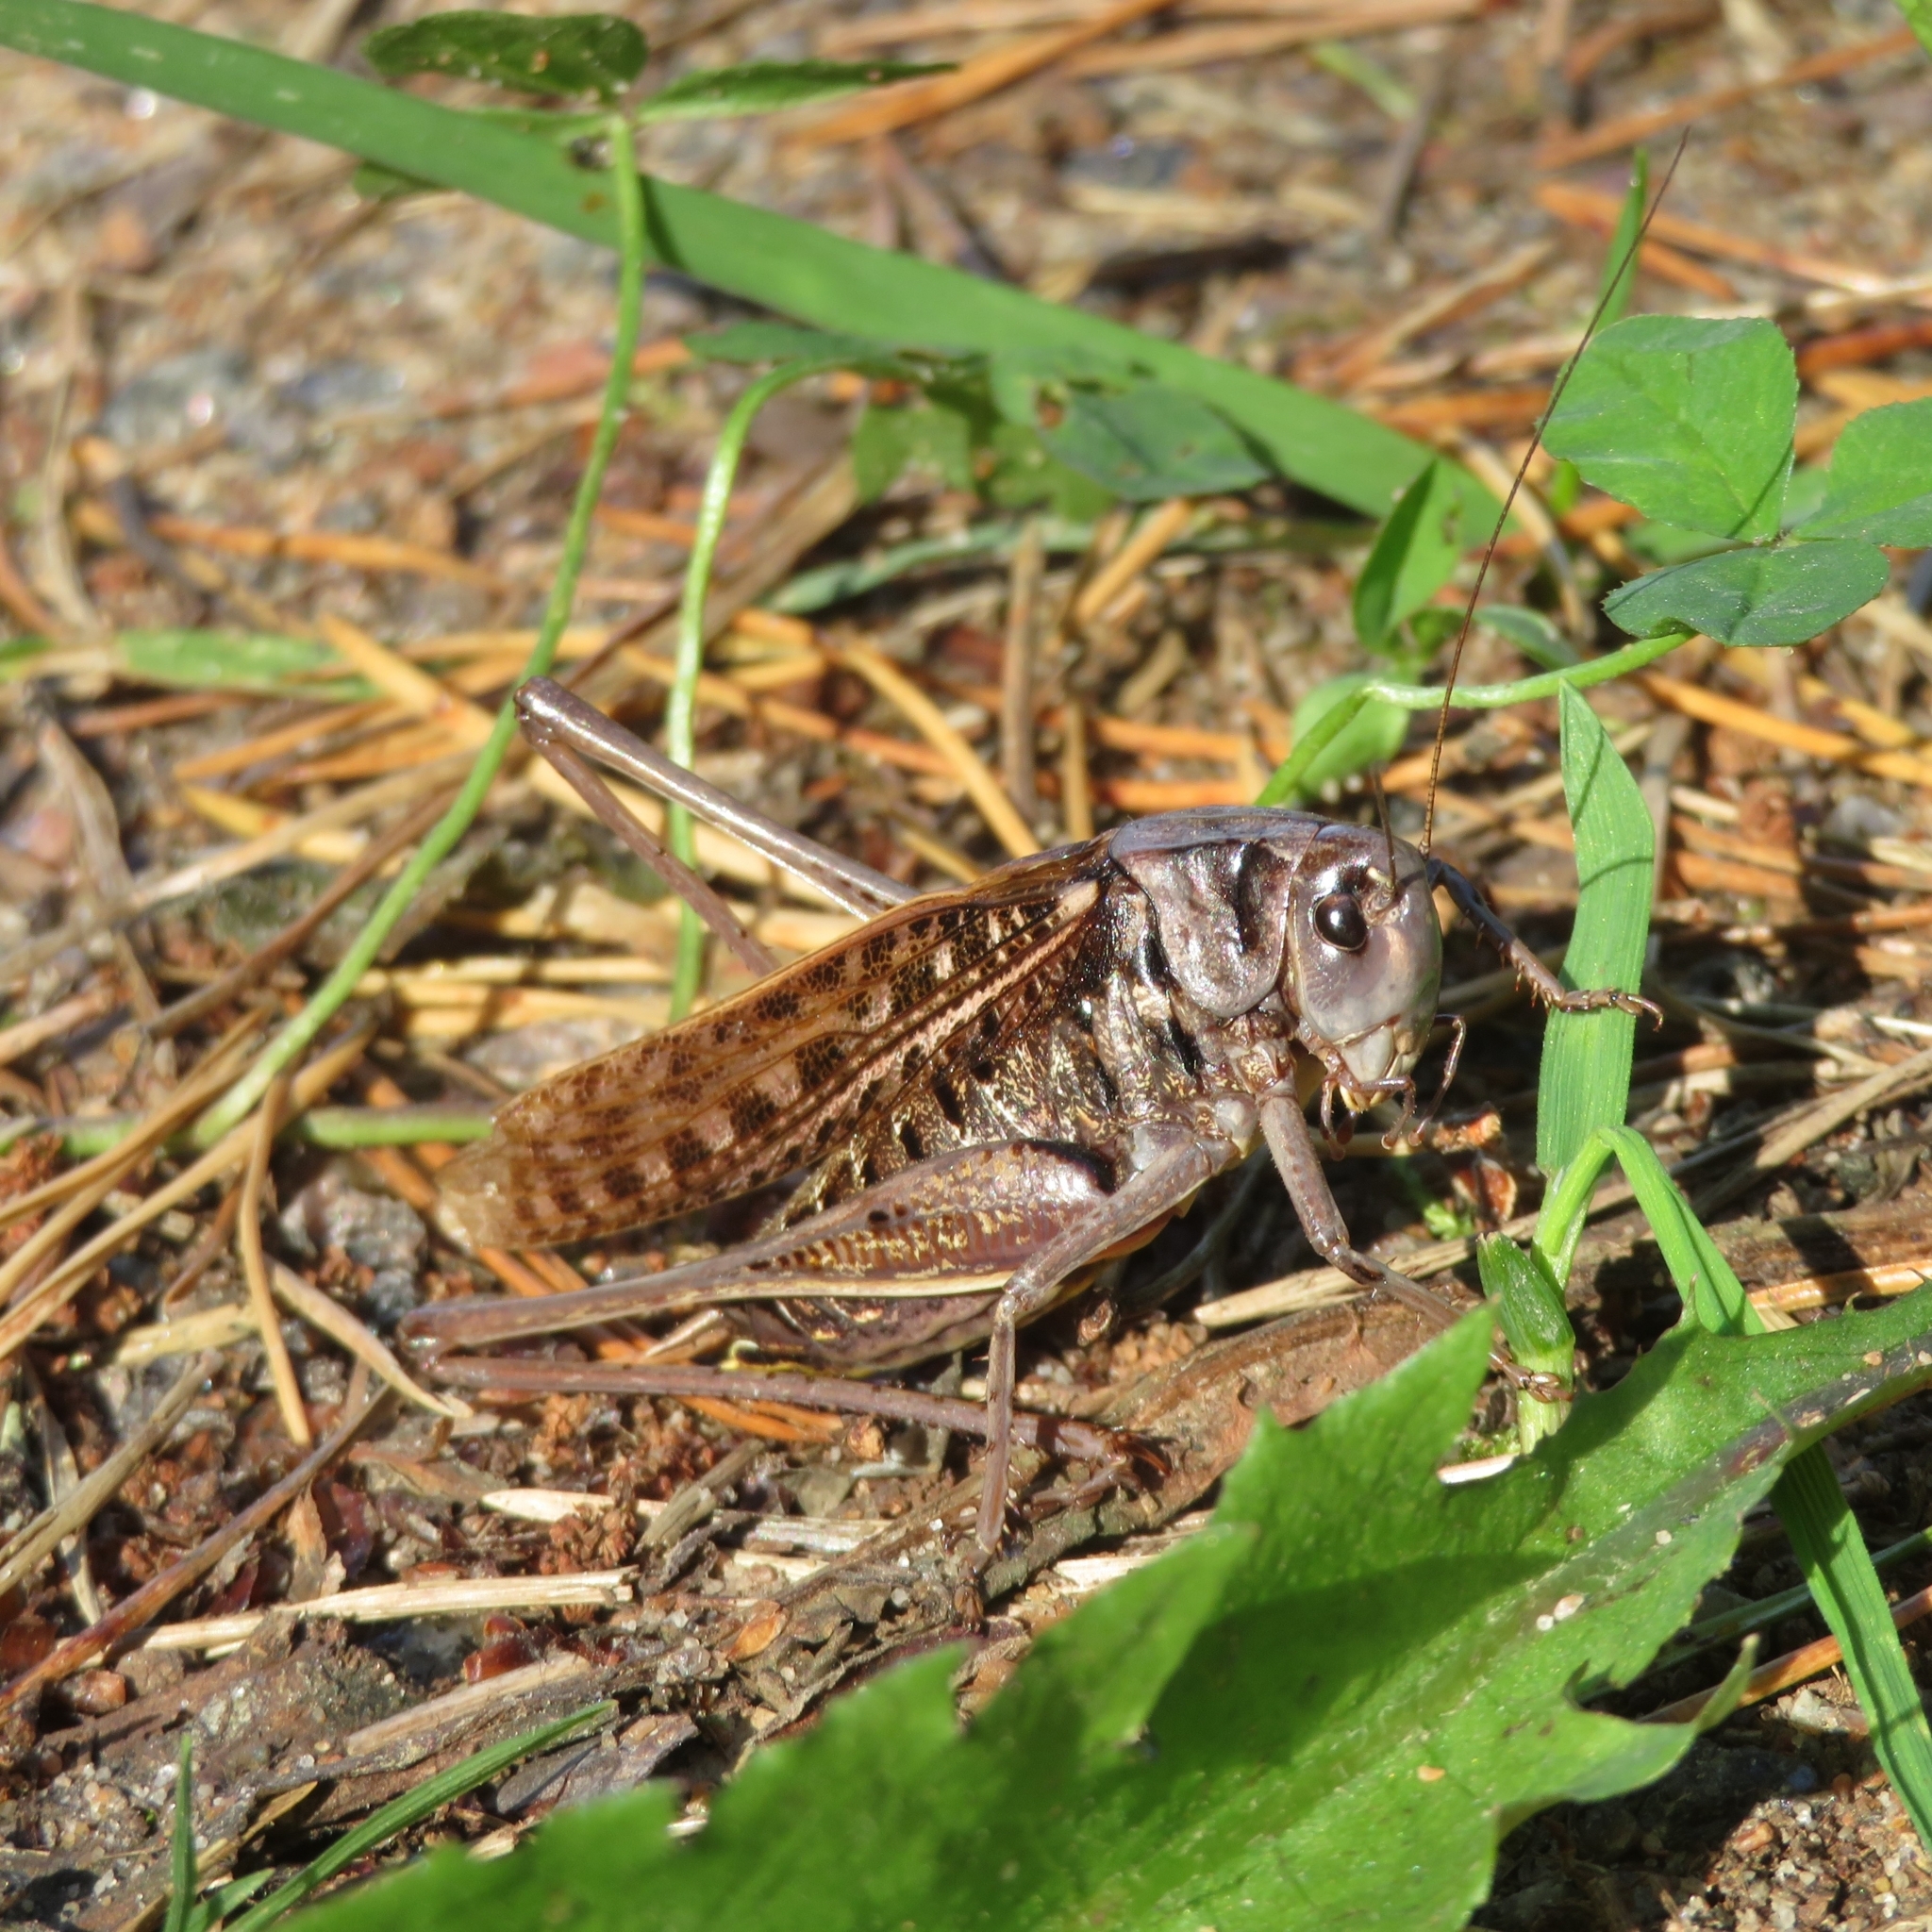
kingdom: Animalia
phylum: Arthropoda
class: Insecta
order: Orthoptera
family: Tettigoniidae
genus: Decticus
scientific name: Decticus verrucivorus
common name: Wart-biter
